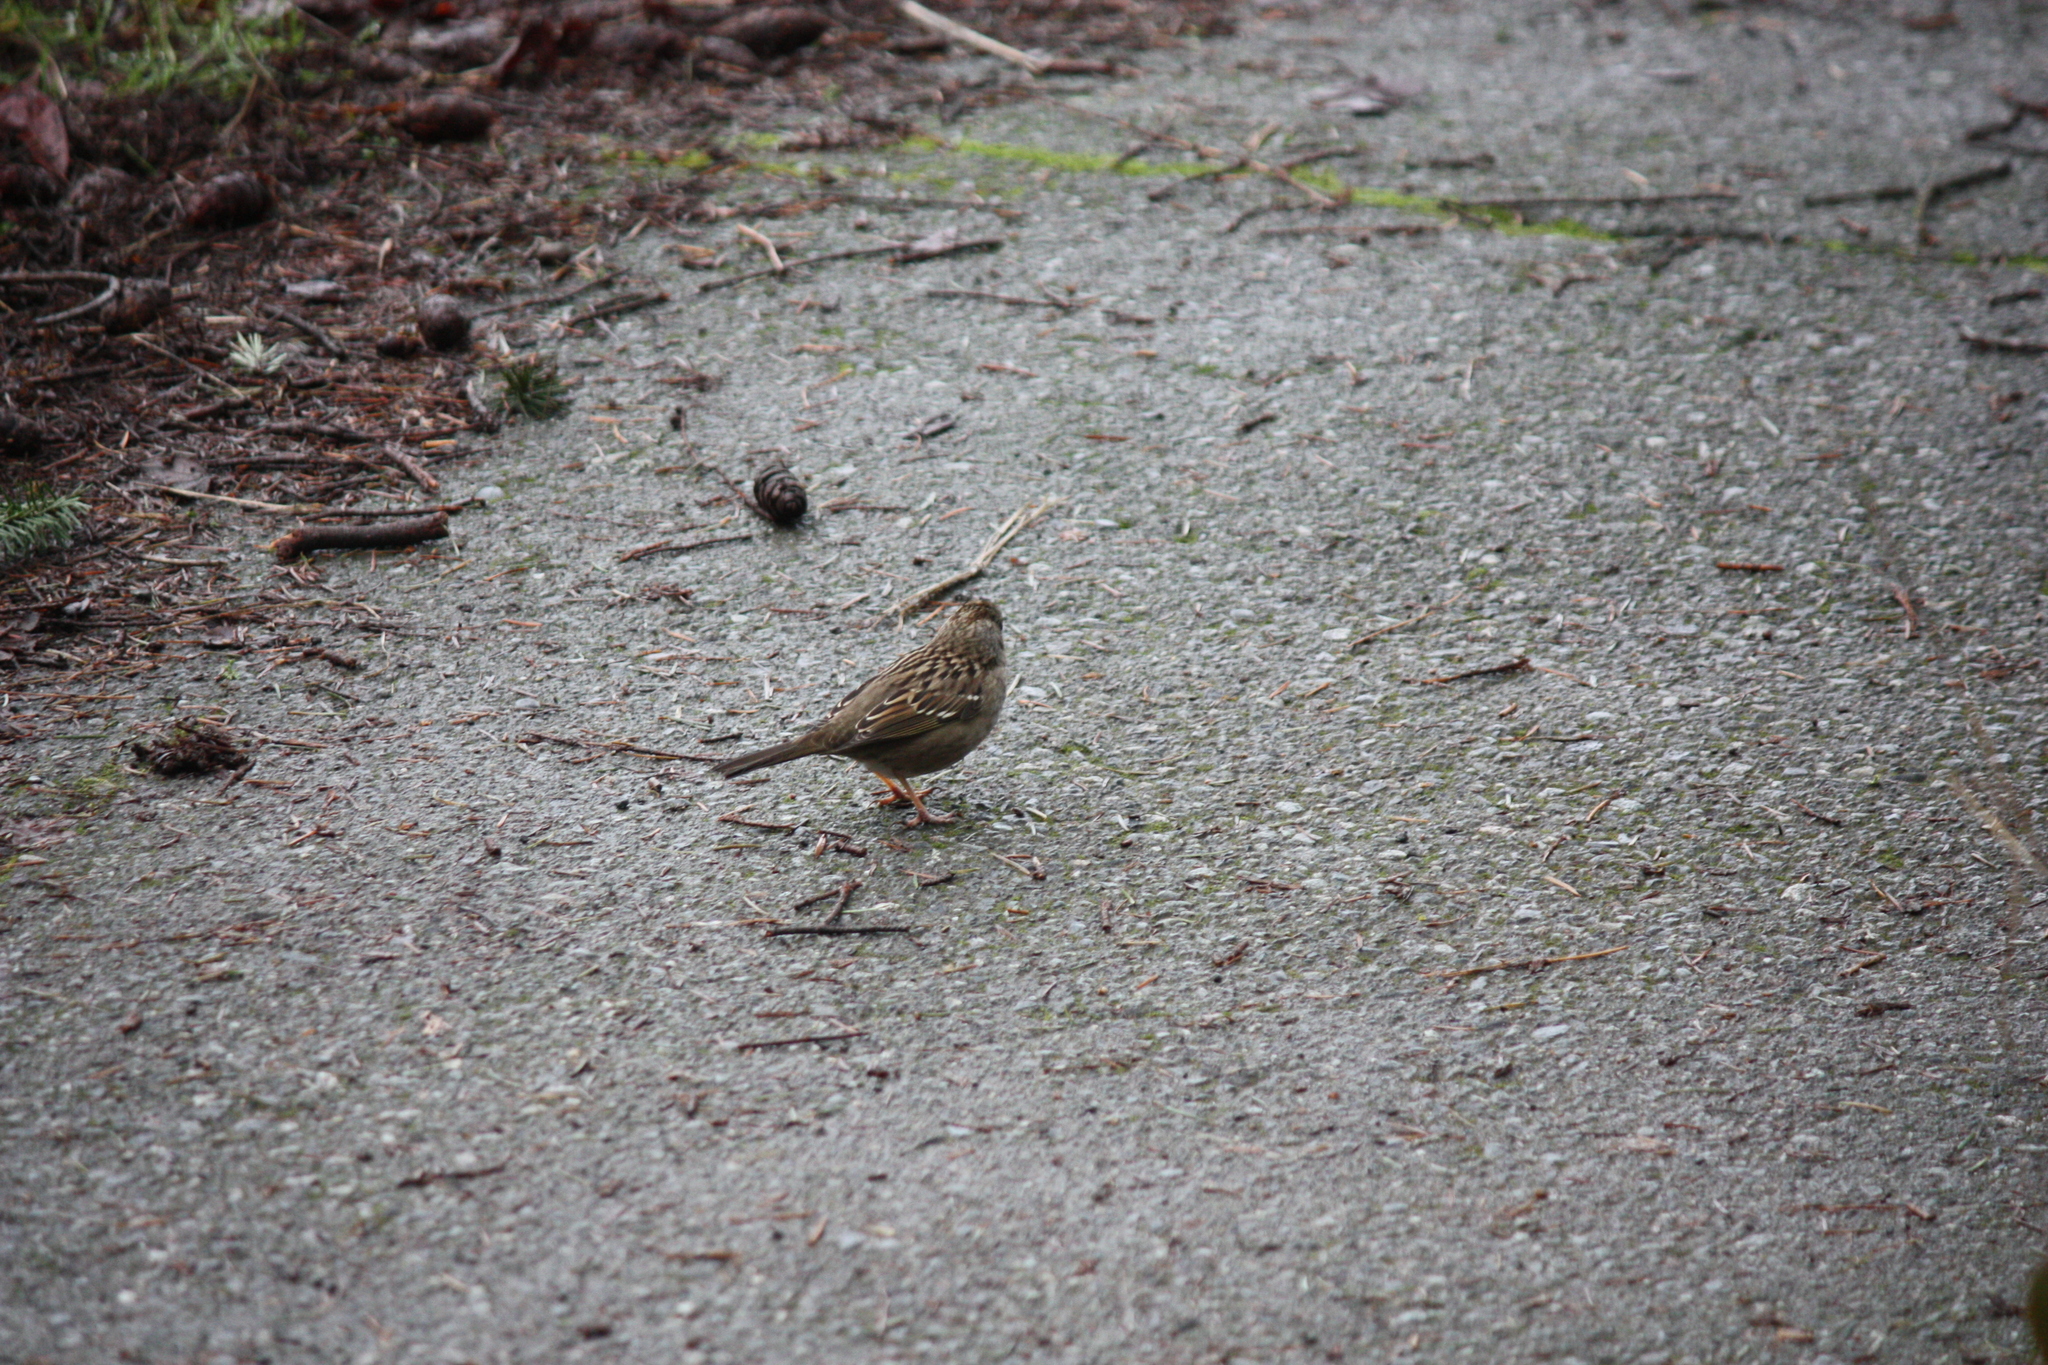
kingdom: Animalia
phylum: Chordata
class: Aves
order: Passeriformes
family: Passerellidae
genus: Zonotrichia
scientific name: Zonotrichia atricapilla
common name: Golden-crowned sparrow
